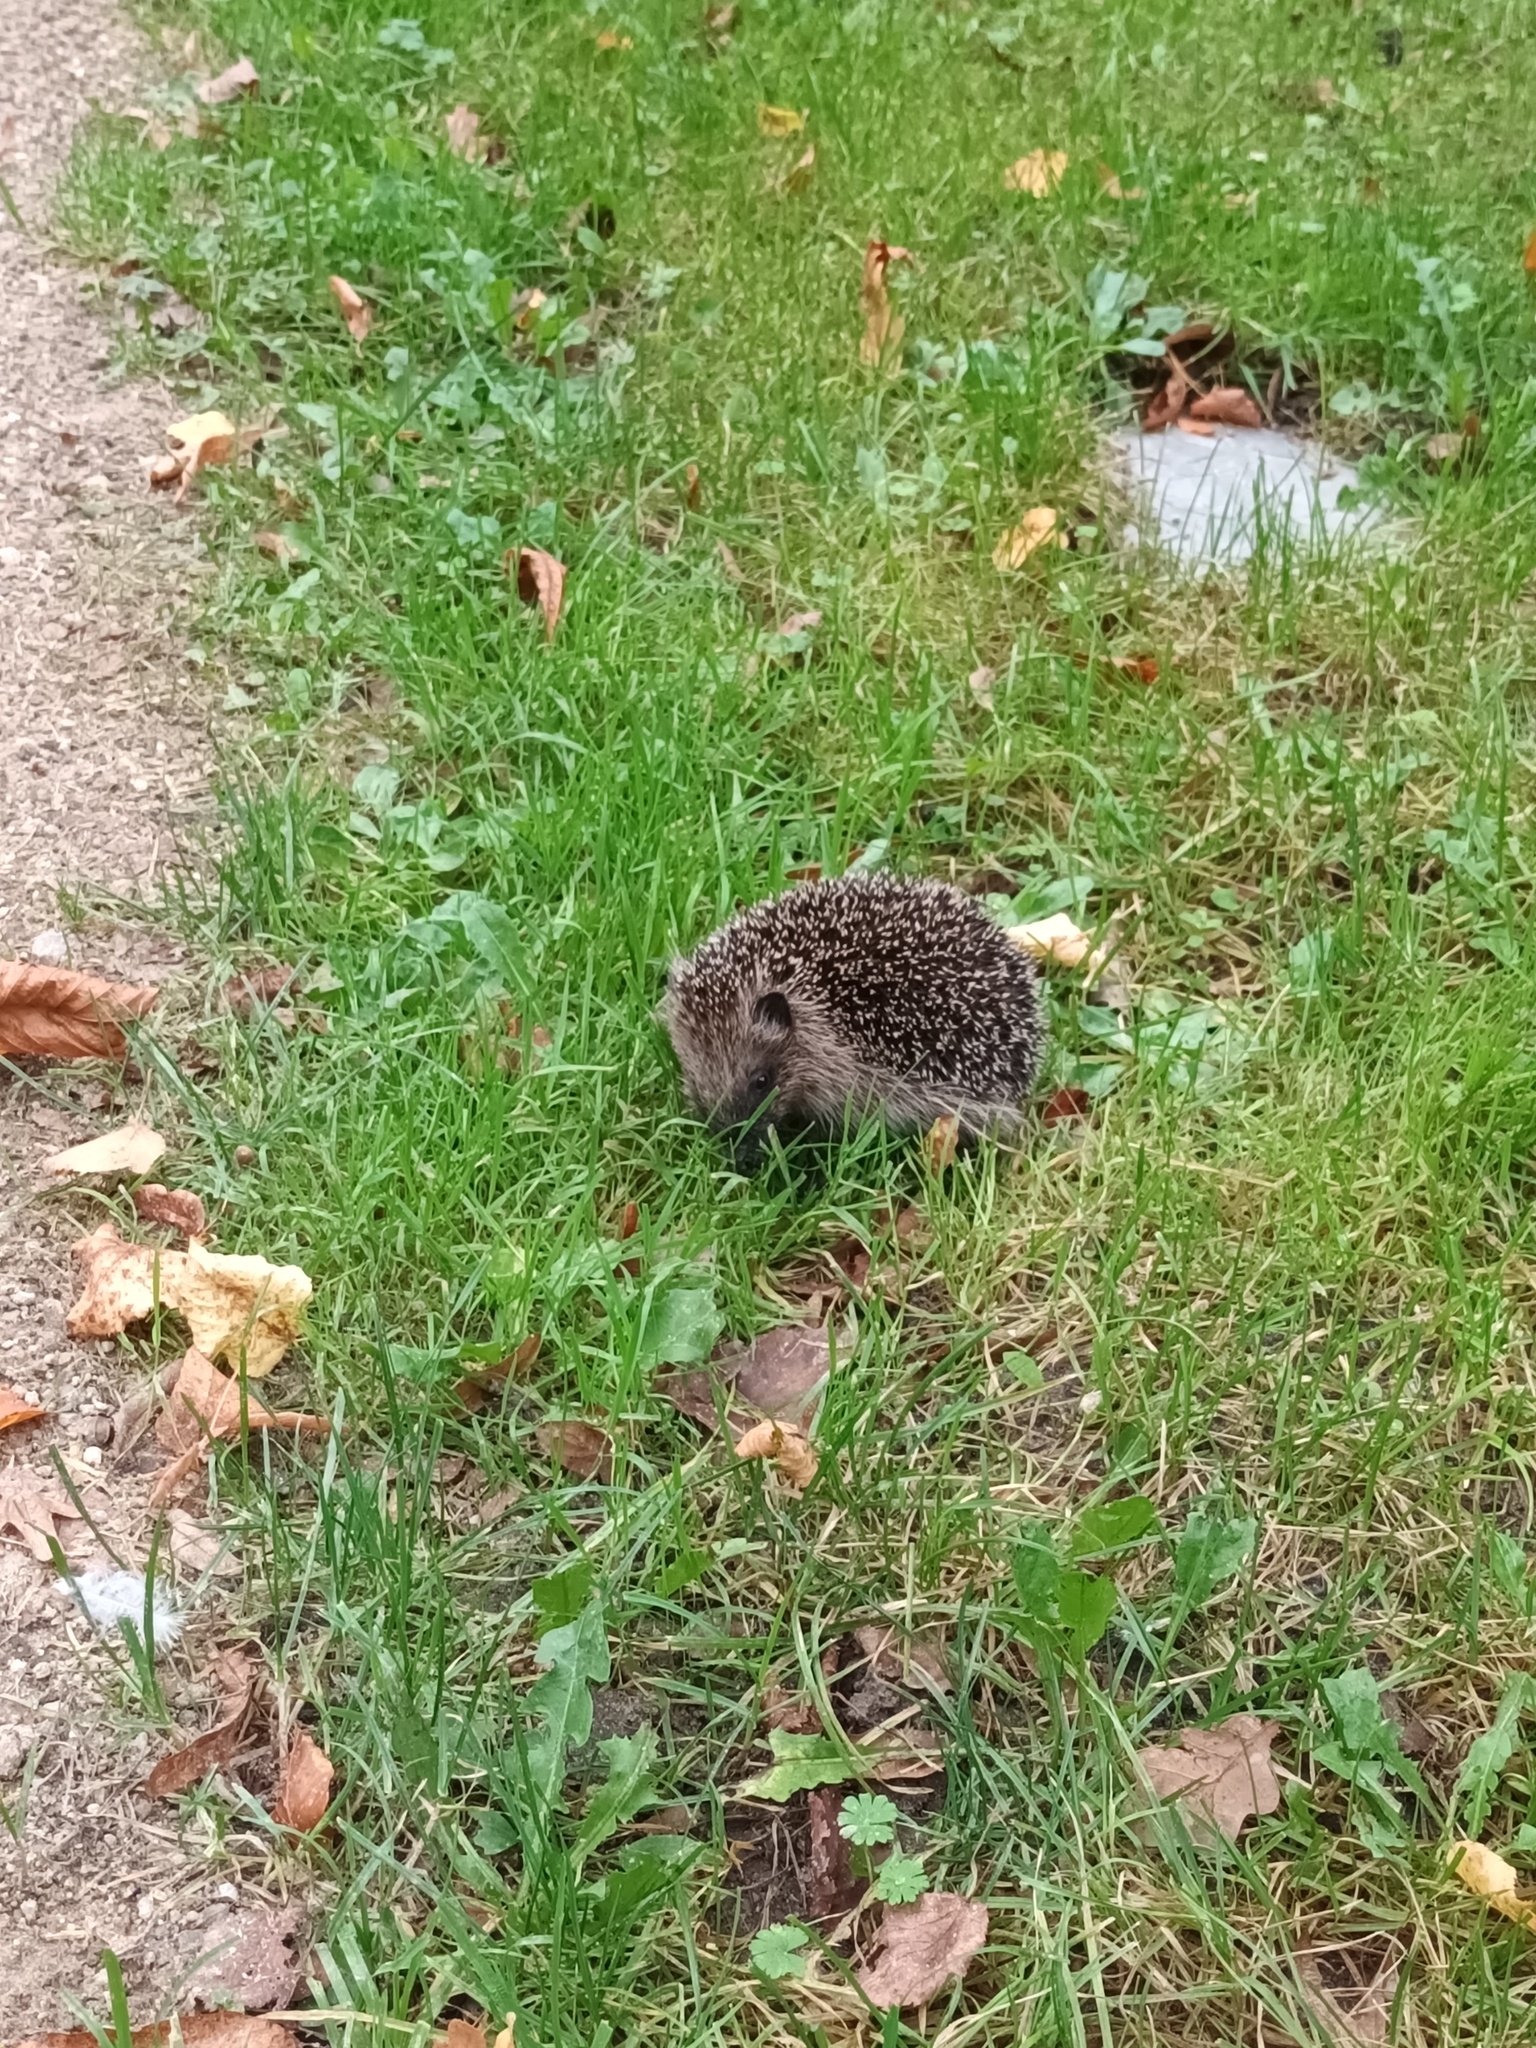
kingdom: Animalia
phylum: Chordata
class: Mammalia
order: Erinaceomorpha
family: Erinaceidae
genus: Erinaceus
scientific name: Erinaceus europaeus
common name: West european hedgehog
